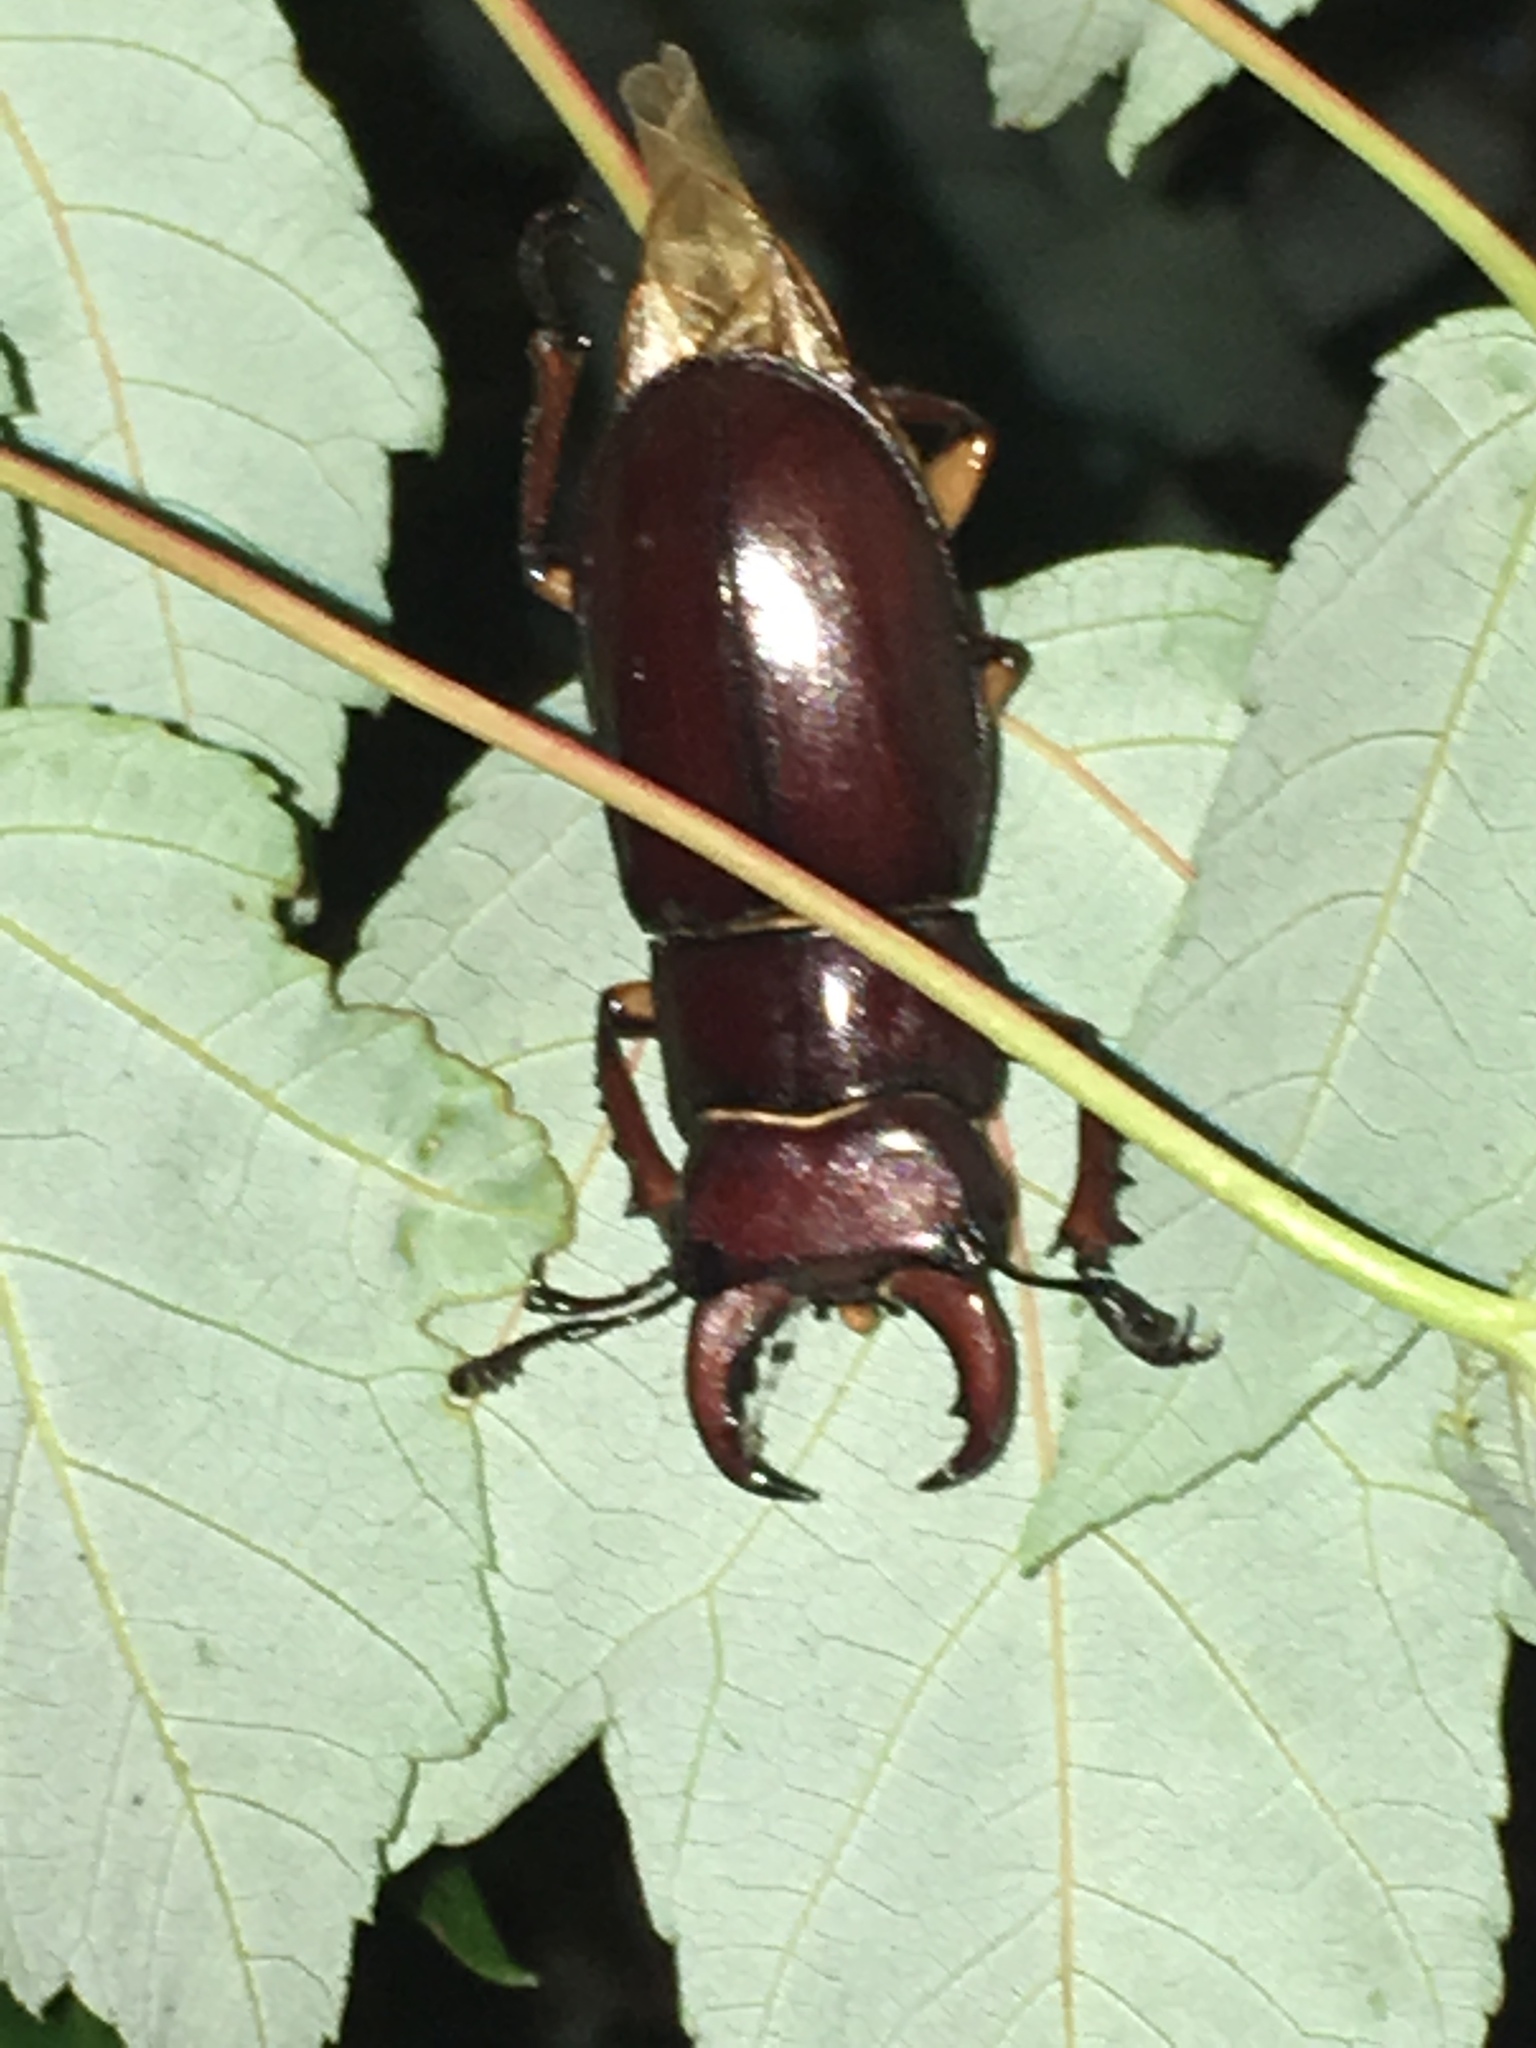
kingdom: Animalia
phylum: Arthropoda
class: Insecta
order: Coleoptera
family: Lucanidae
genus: Lucanus
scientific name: Lucanus capreolus
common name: Stag beetle
